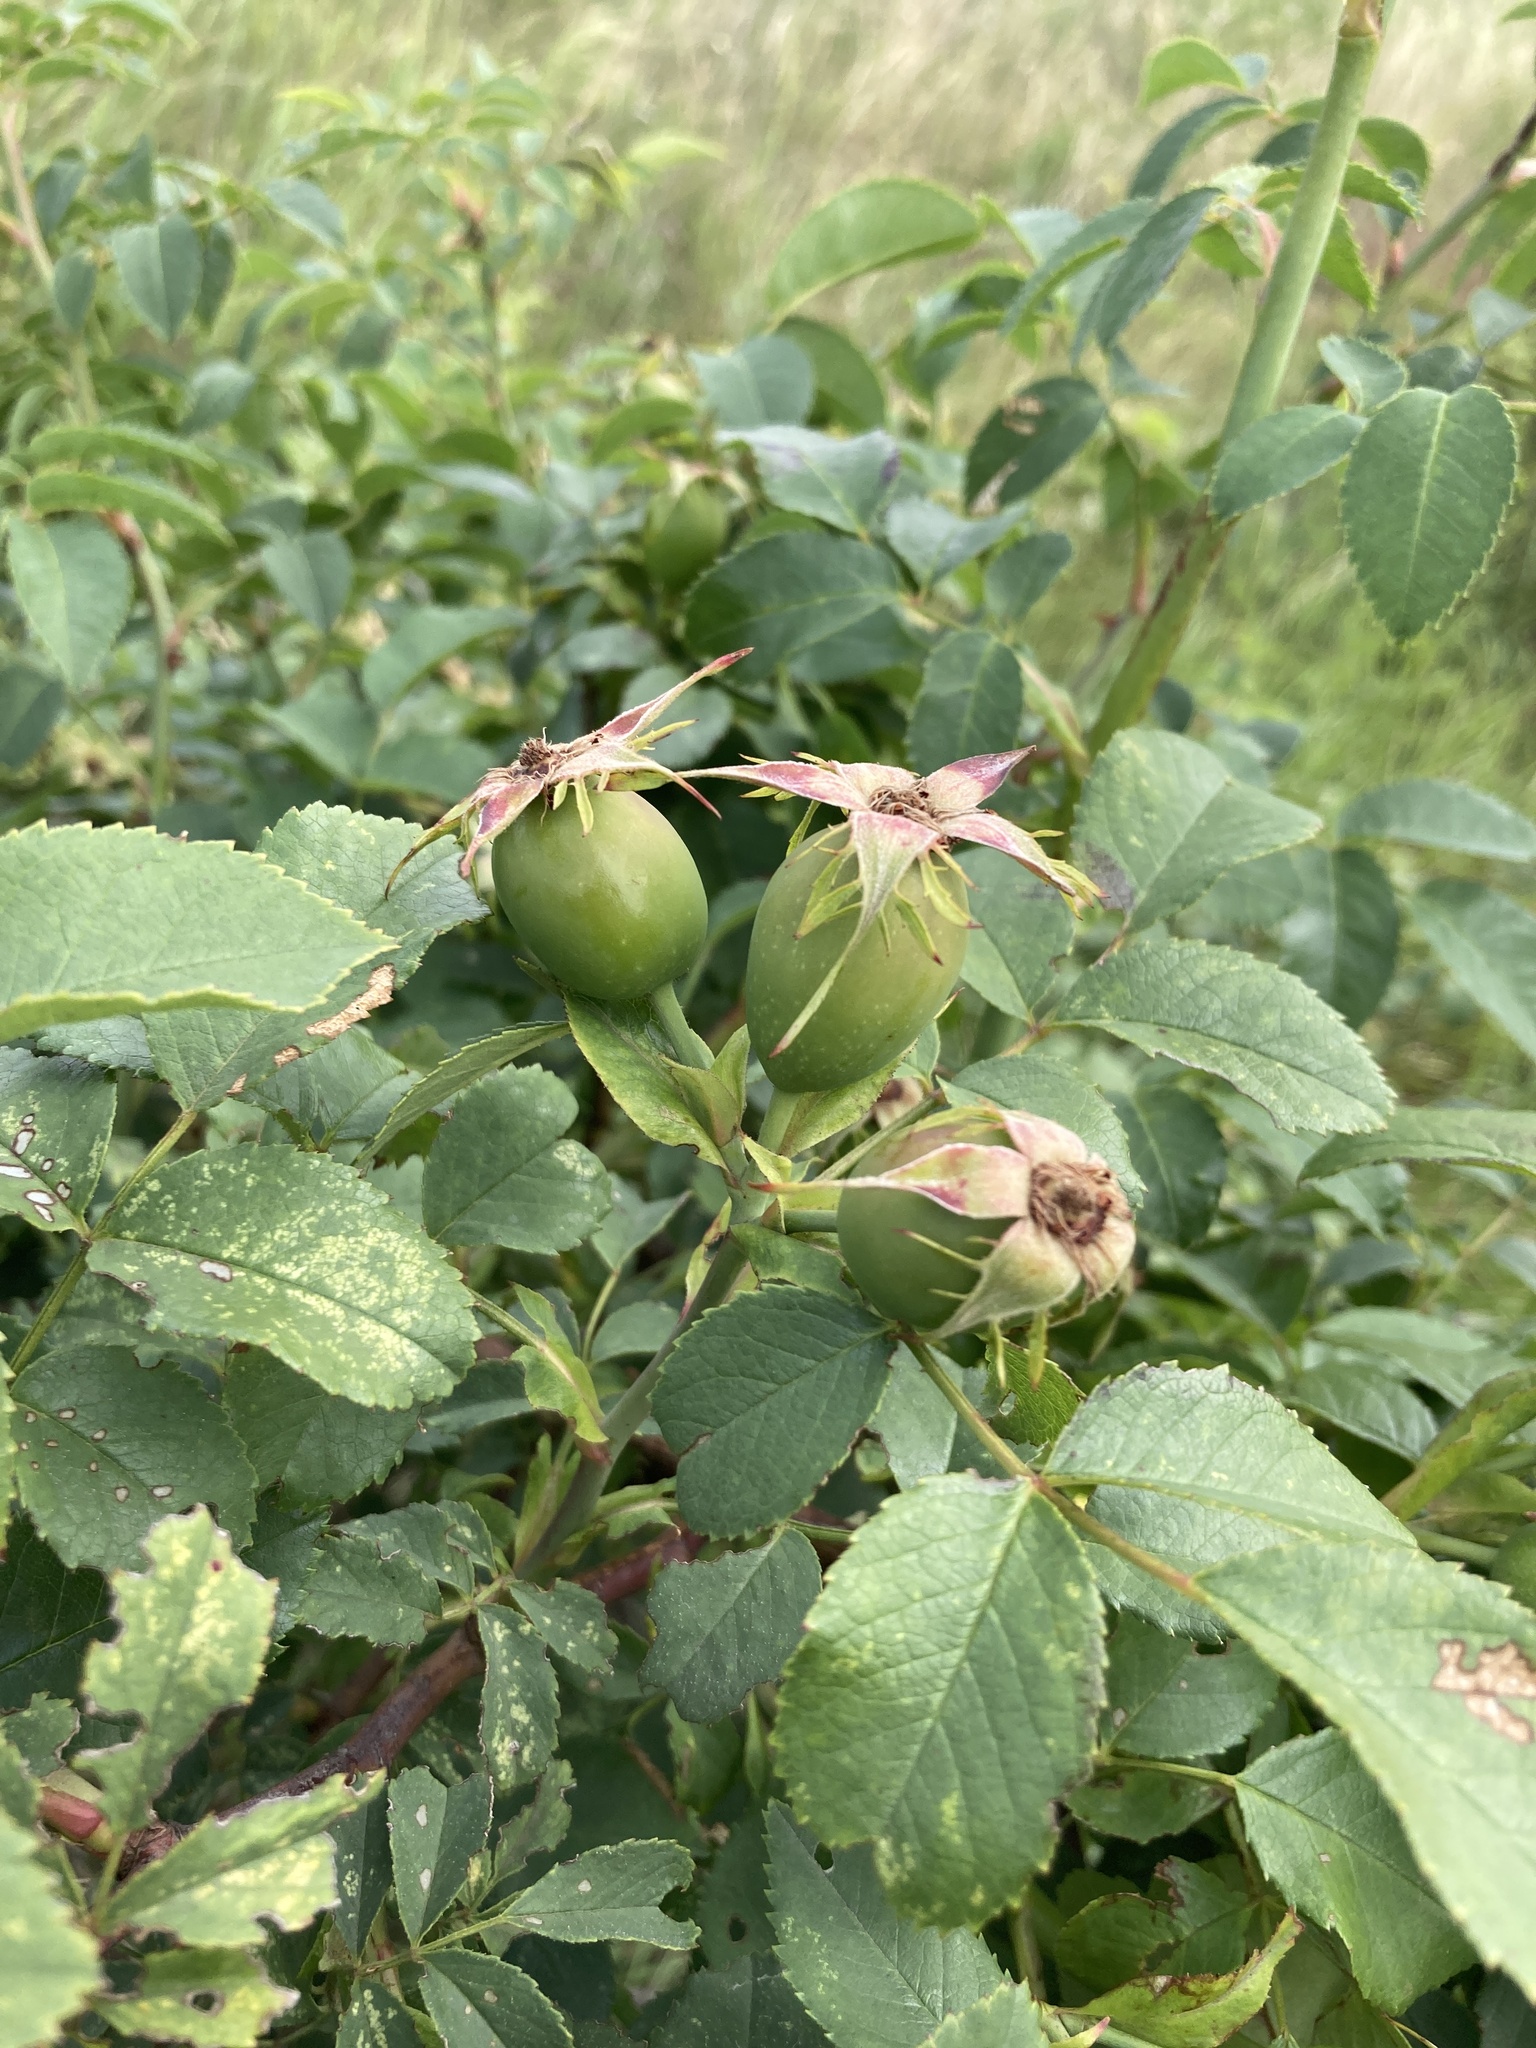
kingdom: Plantae
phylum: Tracheophyta
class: Magnoliopsida
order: Rosales
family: Rosaceae
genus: Rosa
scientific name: Rosa corymbifera
